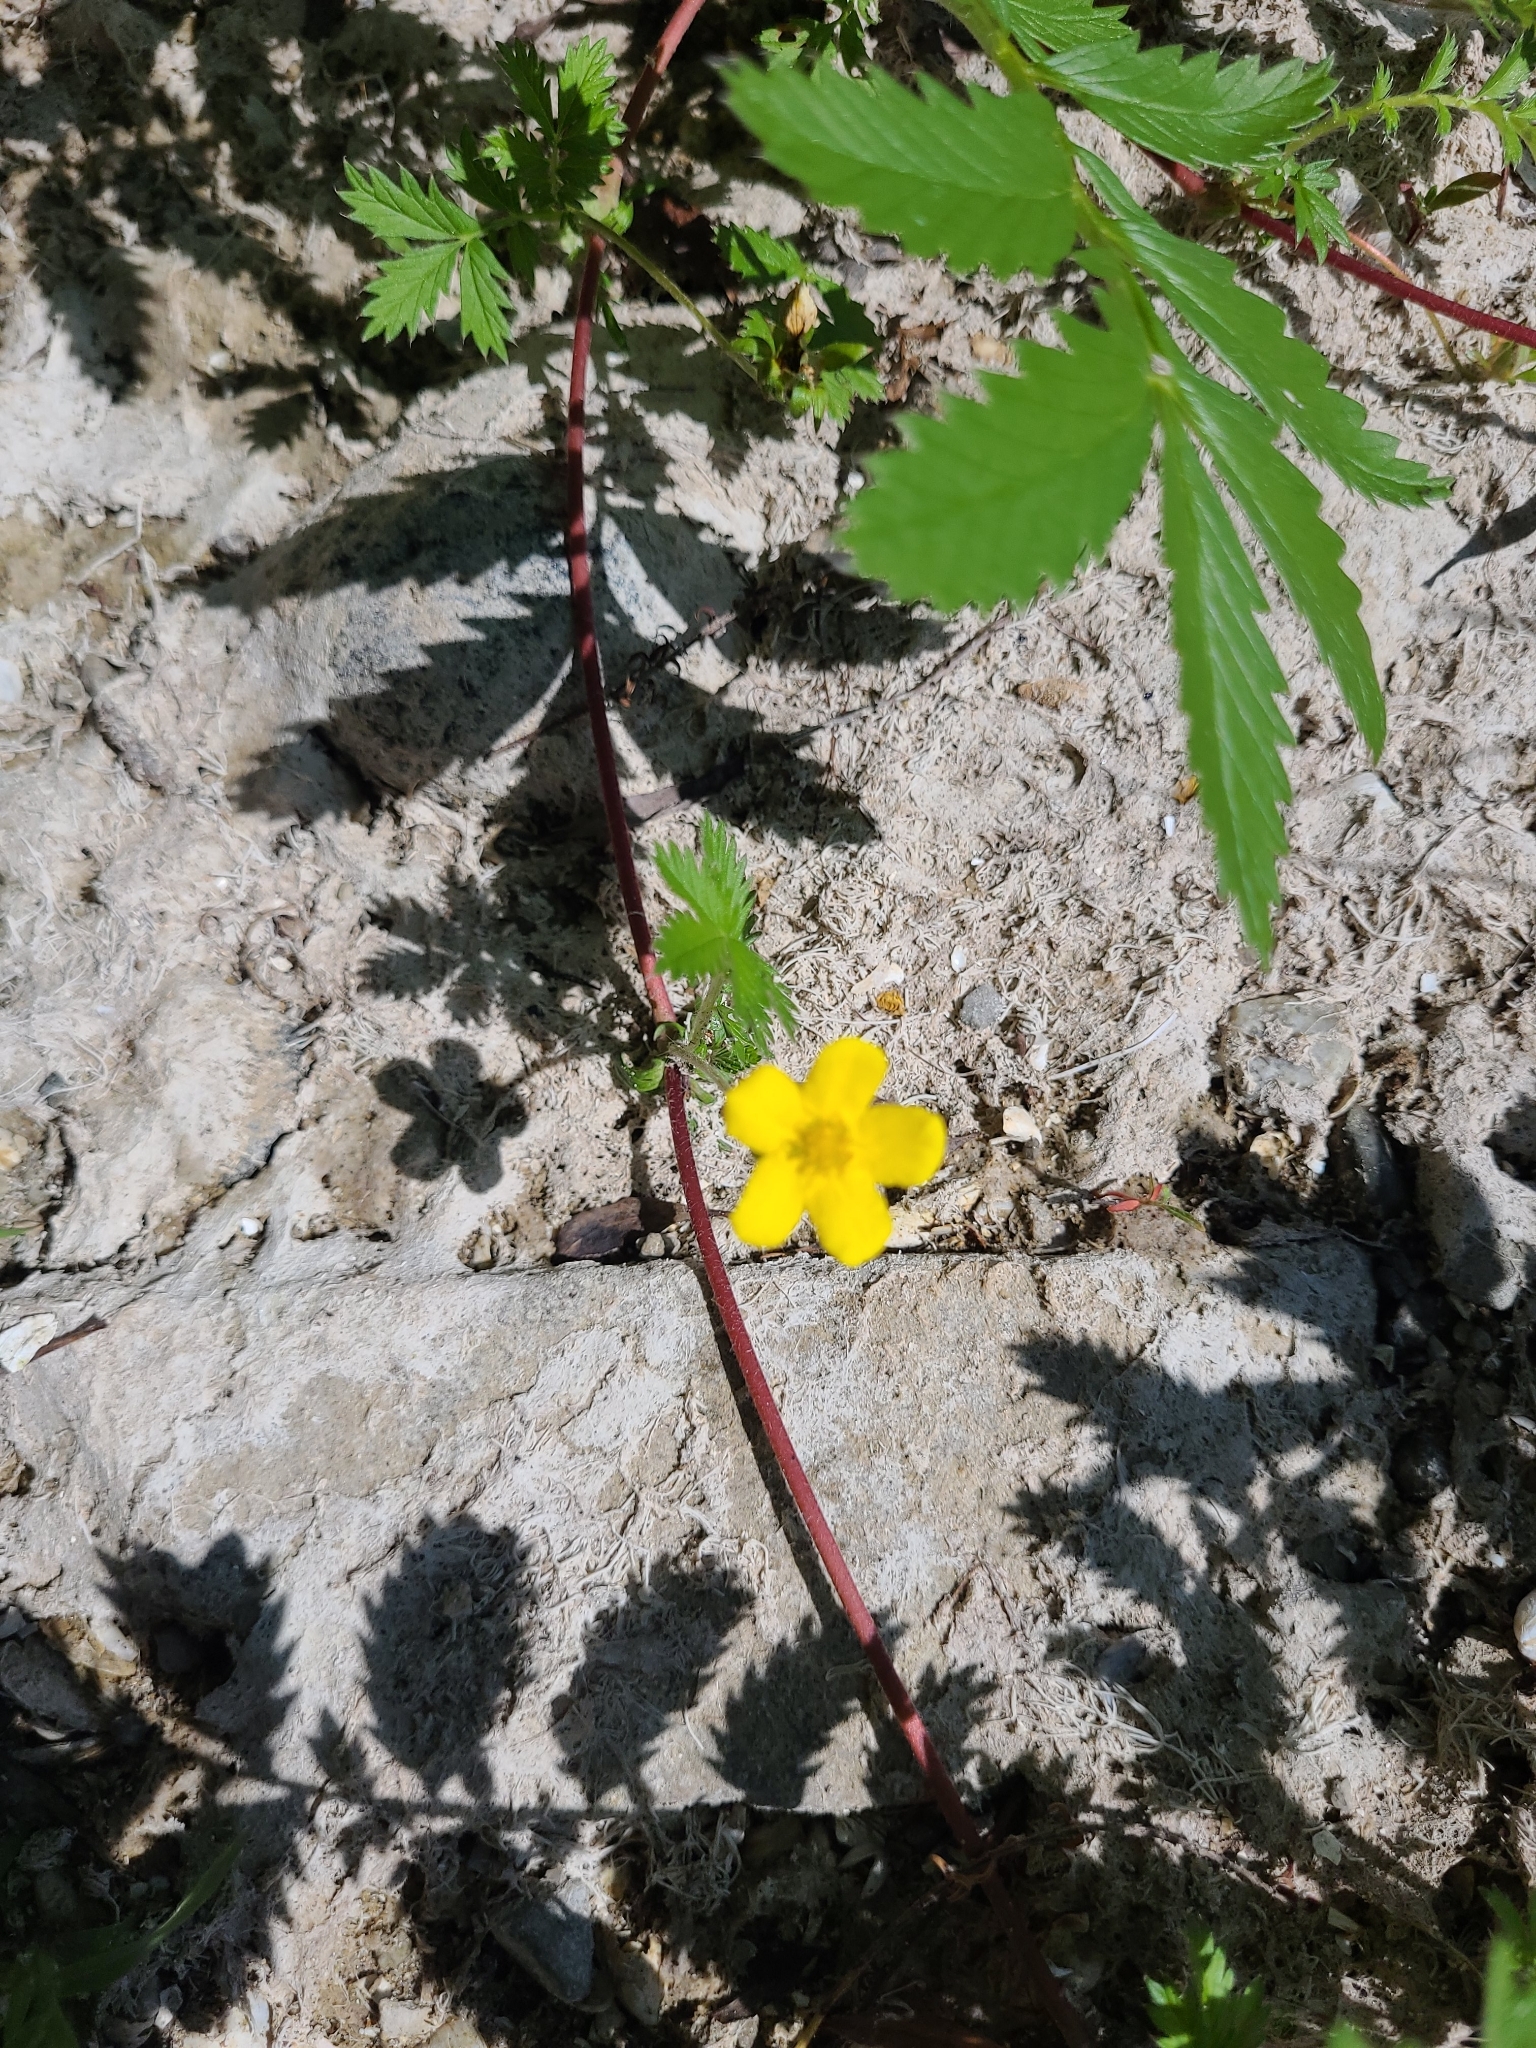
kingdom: Plantae
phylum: Tracheophyta
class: Magnoliopsida
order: Rosales
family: Rosaceae
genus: Argentina
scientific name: Argentina anserina
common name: Common silverweed
